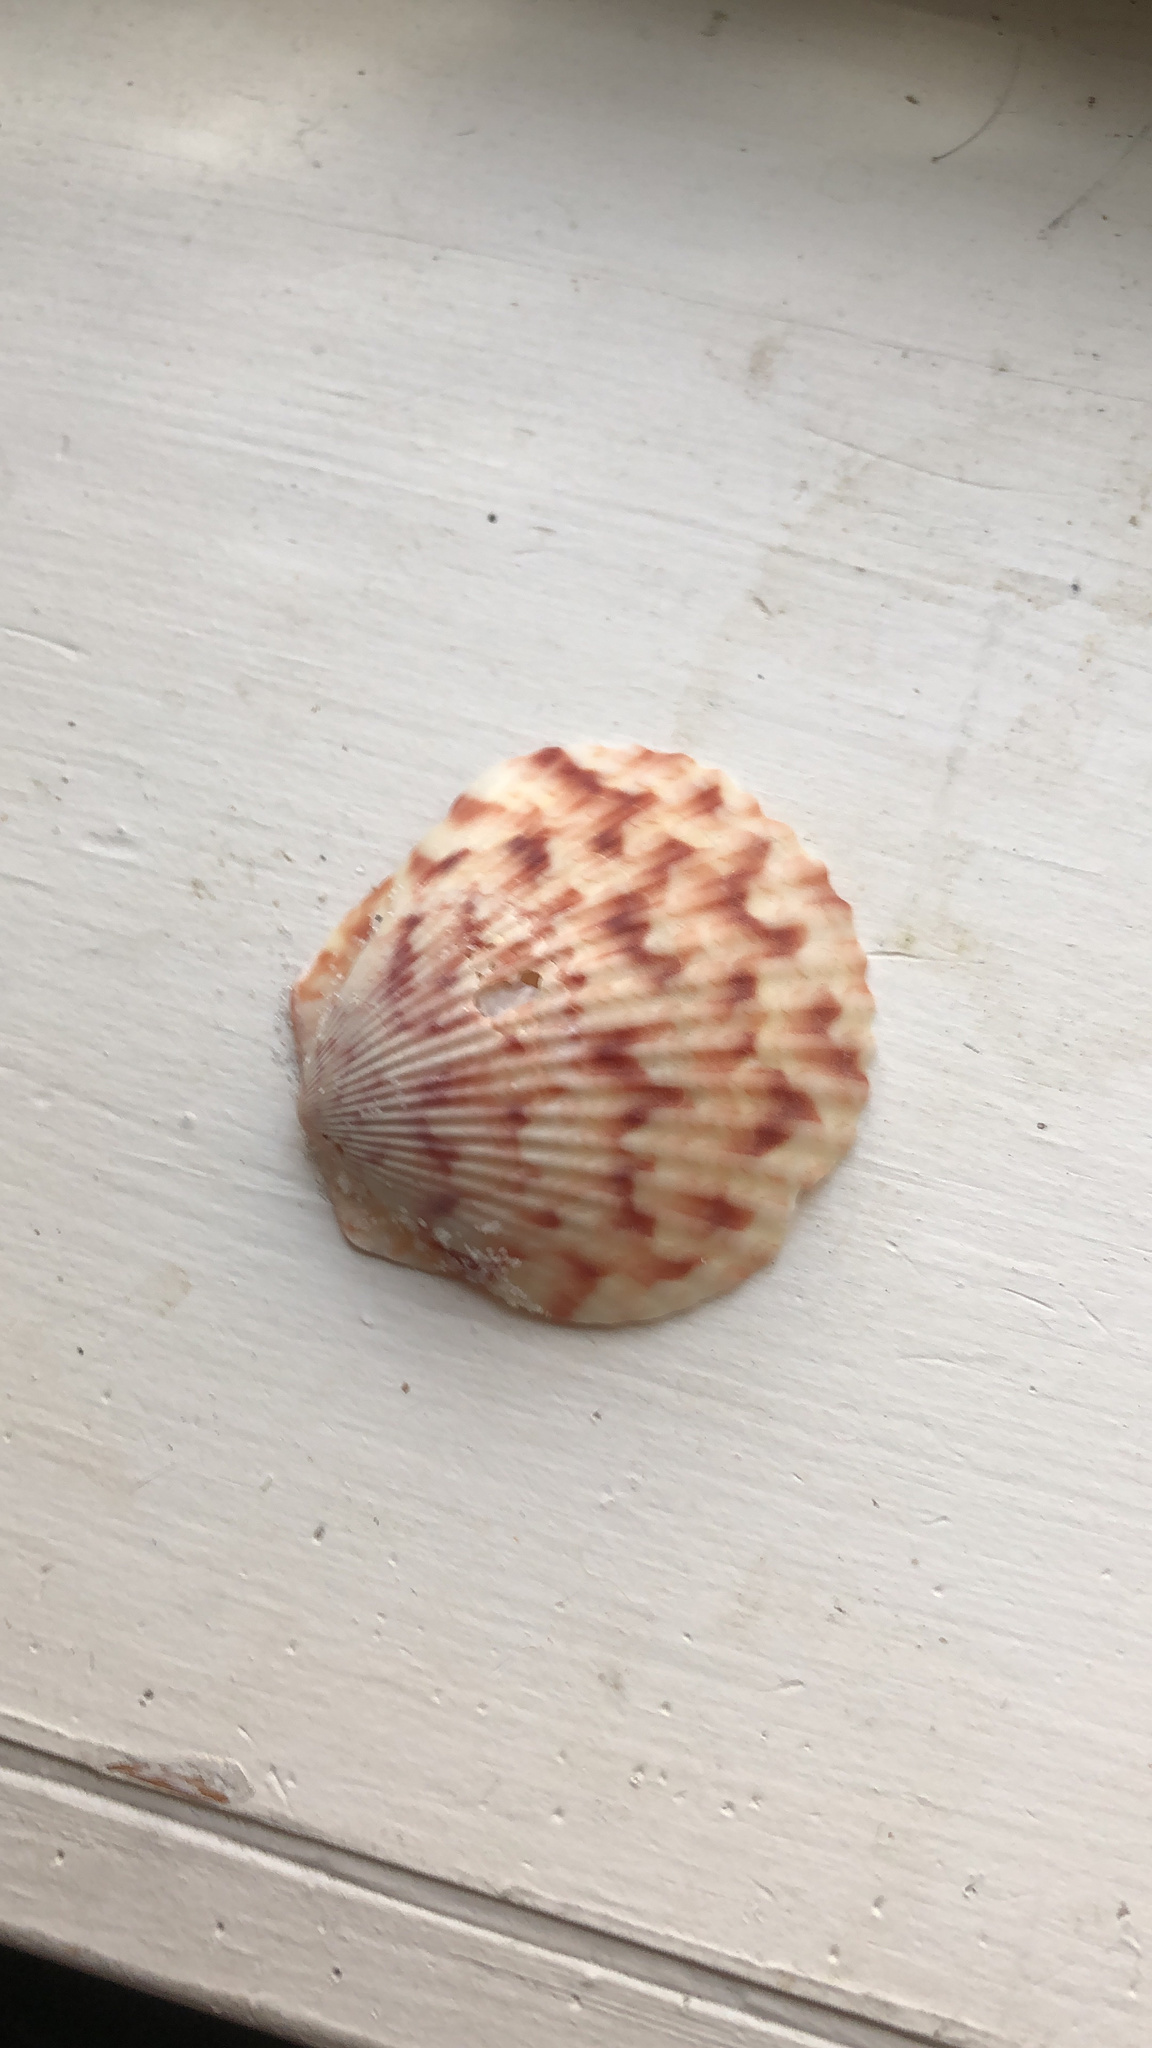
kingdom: Animalia
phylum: Mollusca
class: Bivalvia
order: Pectinida
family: Pectinidae
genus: Argopecten
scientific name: Argopecten gibbus
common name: Atlantic calico scallop
